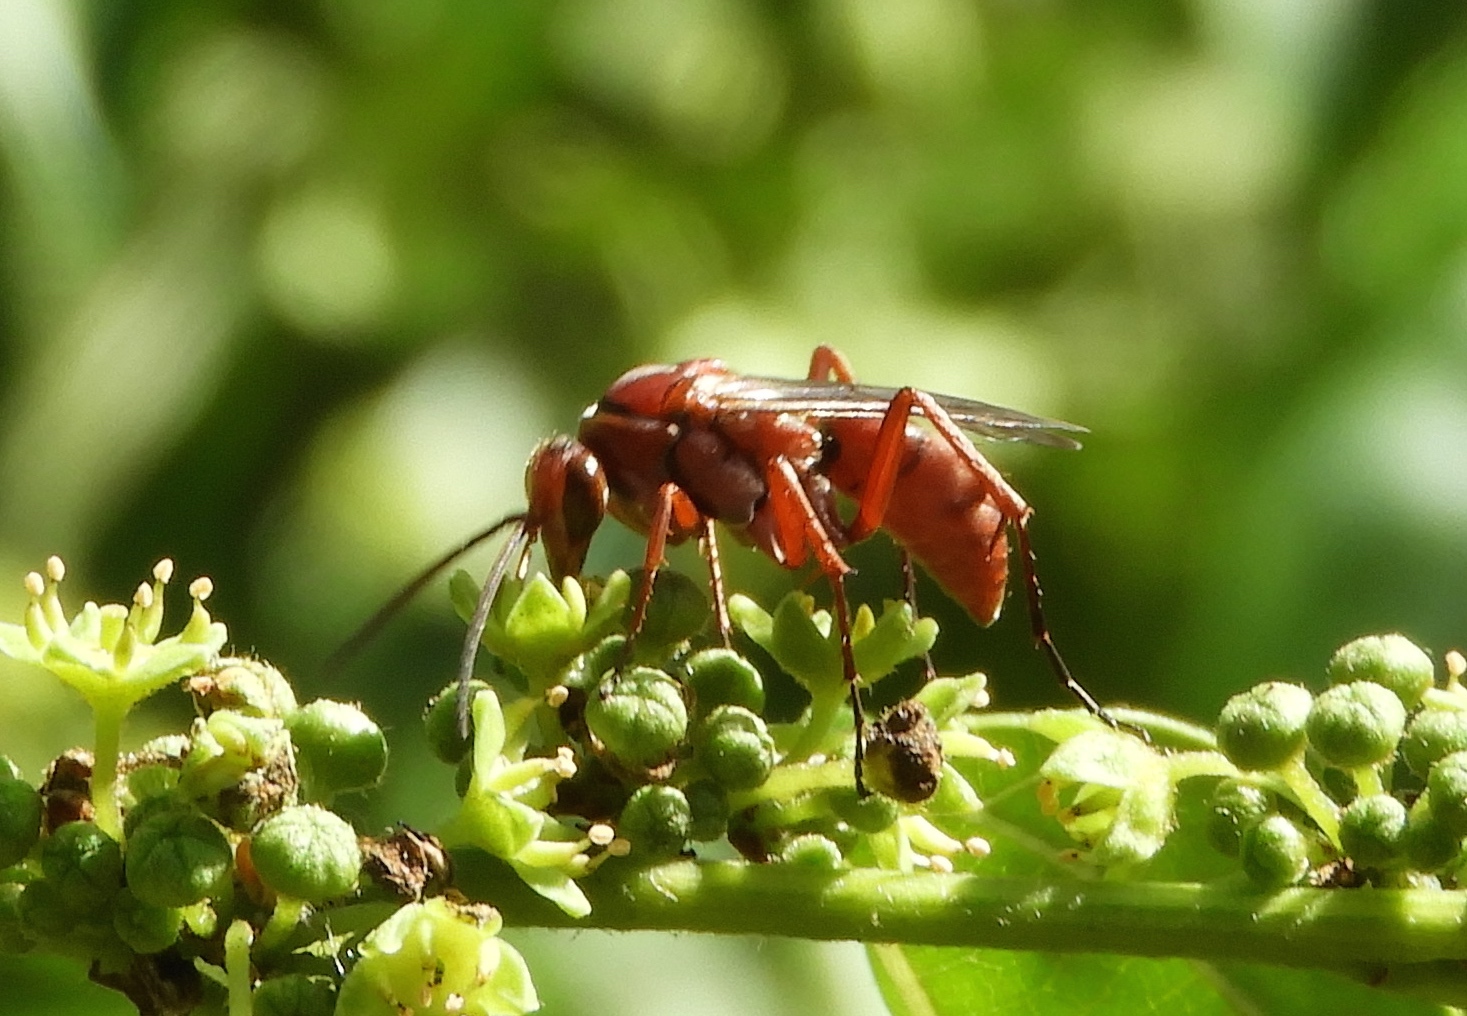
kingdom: Animalia
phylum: Arthropoda
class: Insecta
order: Hymenoptera
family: Pompilidae
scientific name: Pompilidae
